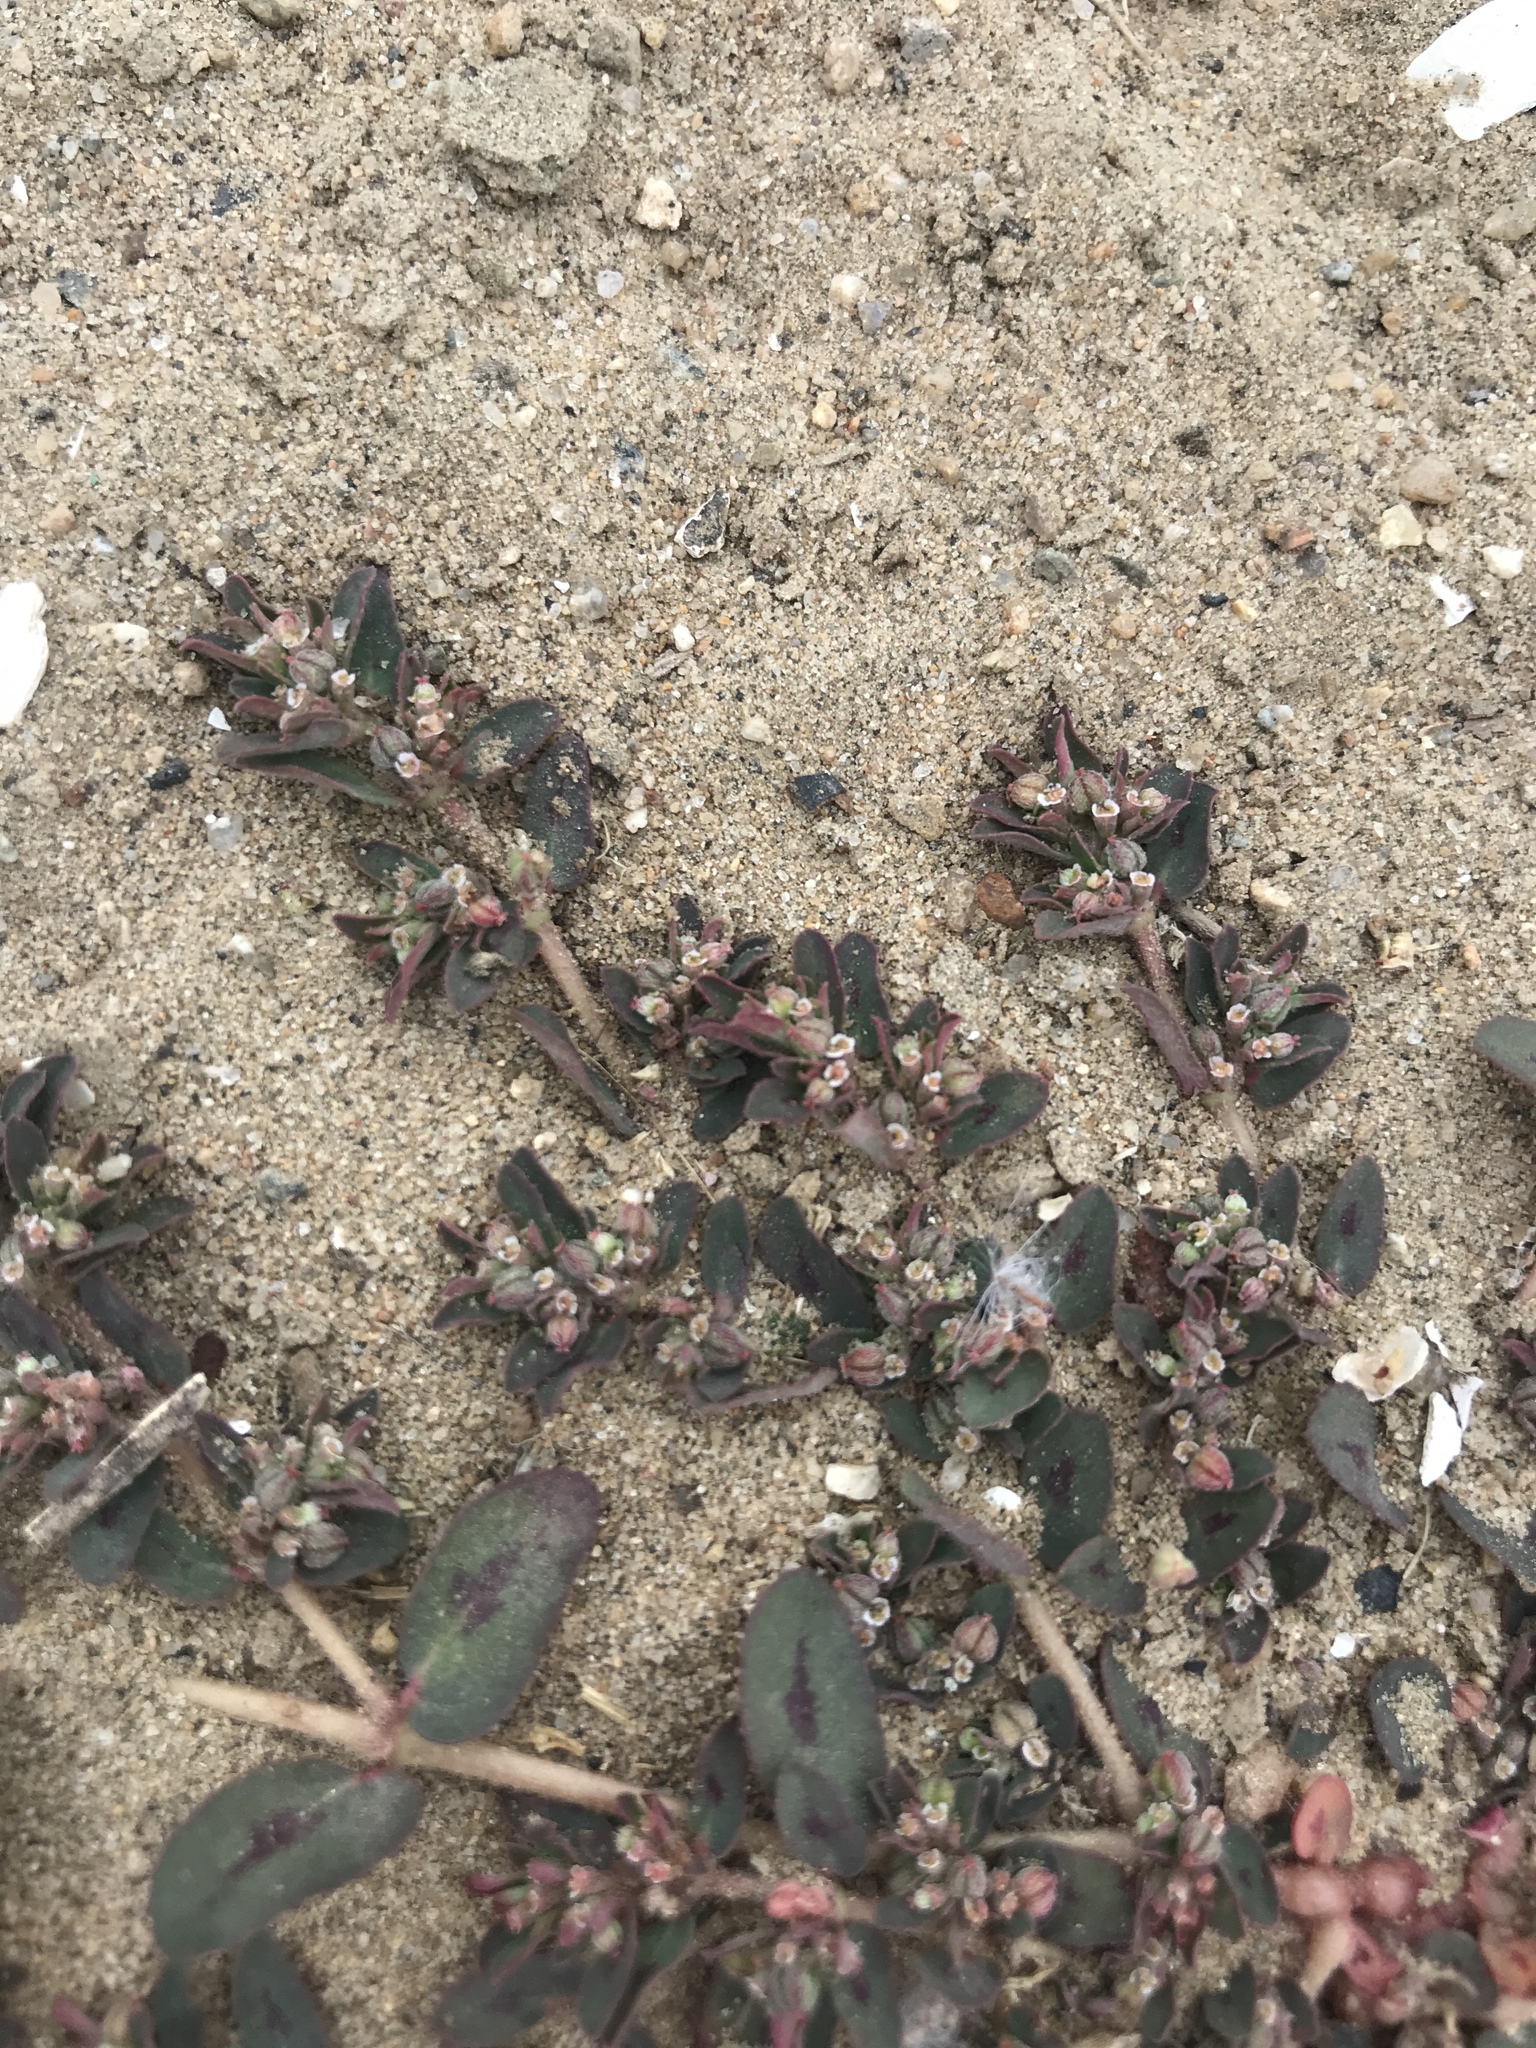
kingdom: Plantae
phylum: Tracheophyta
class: Magnoliopsida
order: Malpighiales
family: Euphorbiaceae
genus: Euphorbia
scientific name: Euphorbia maculata
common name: Spotted spurge
